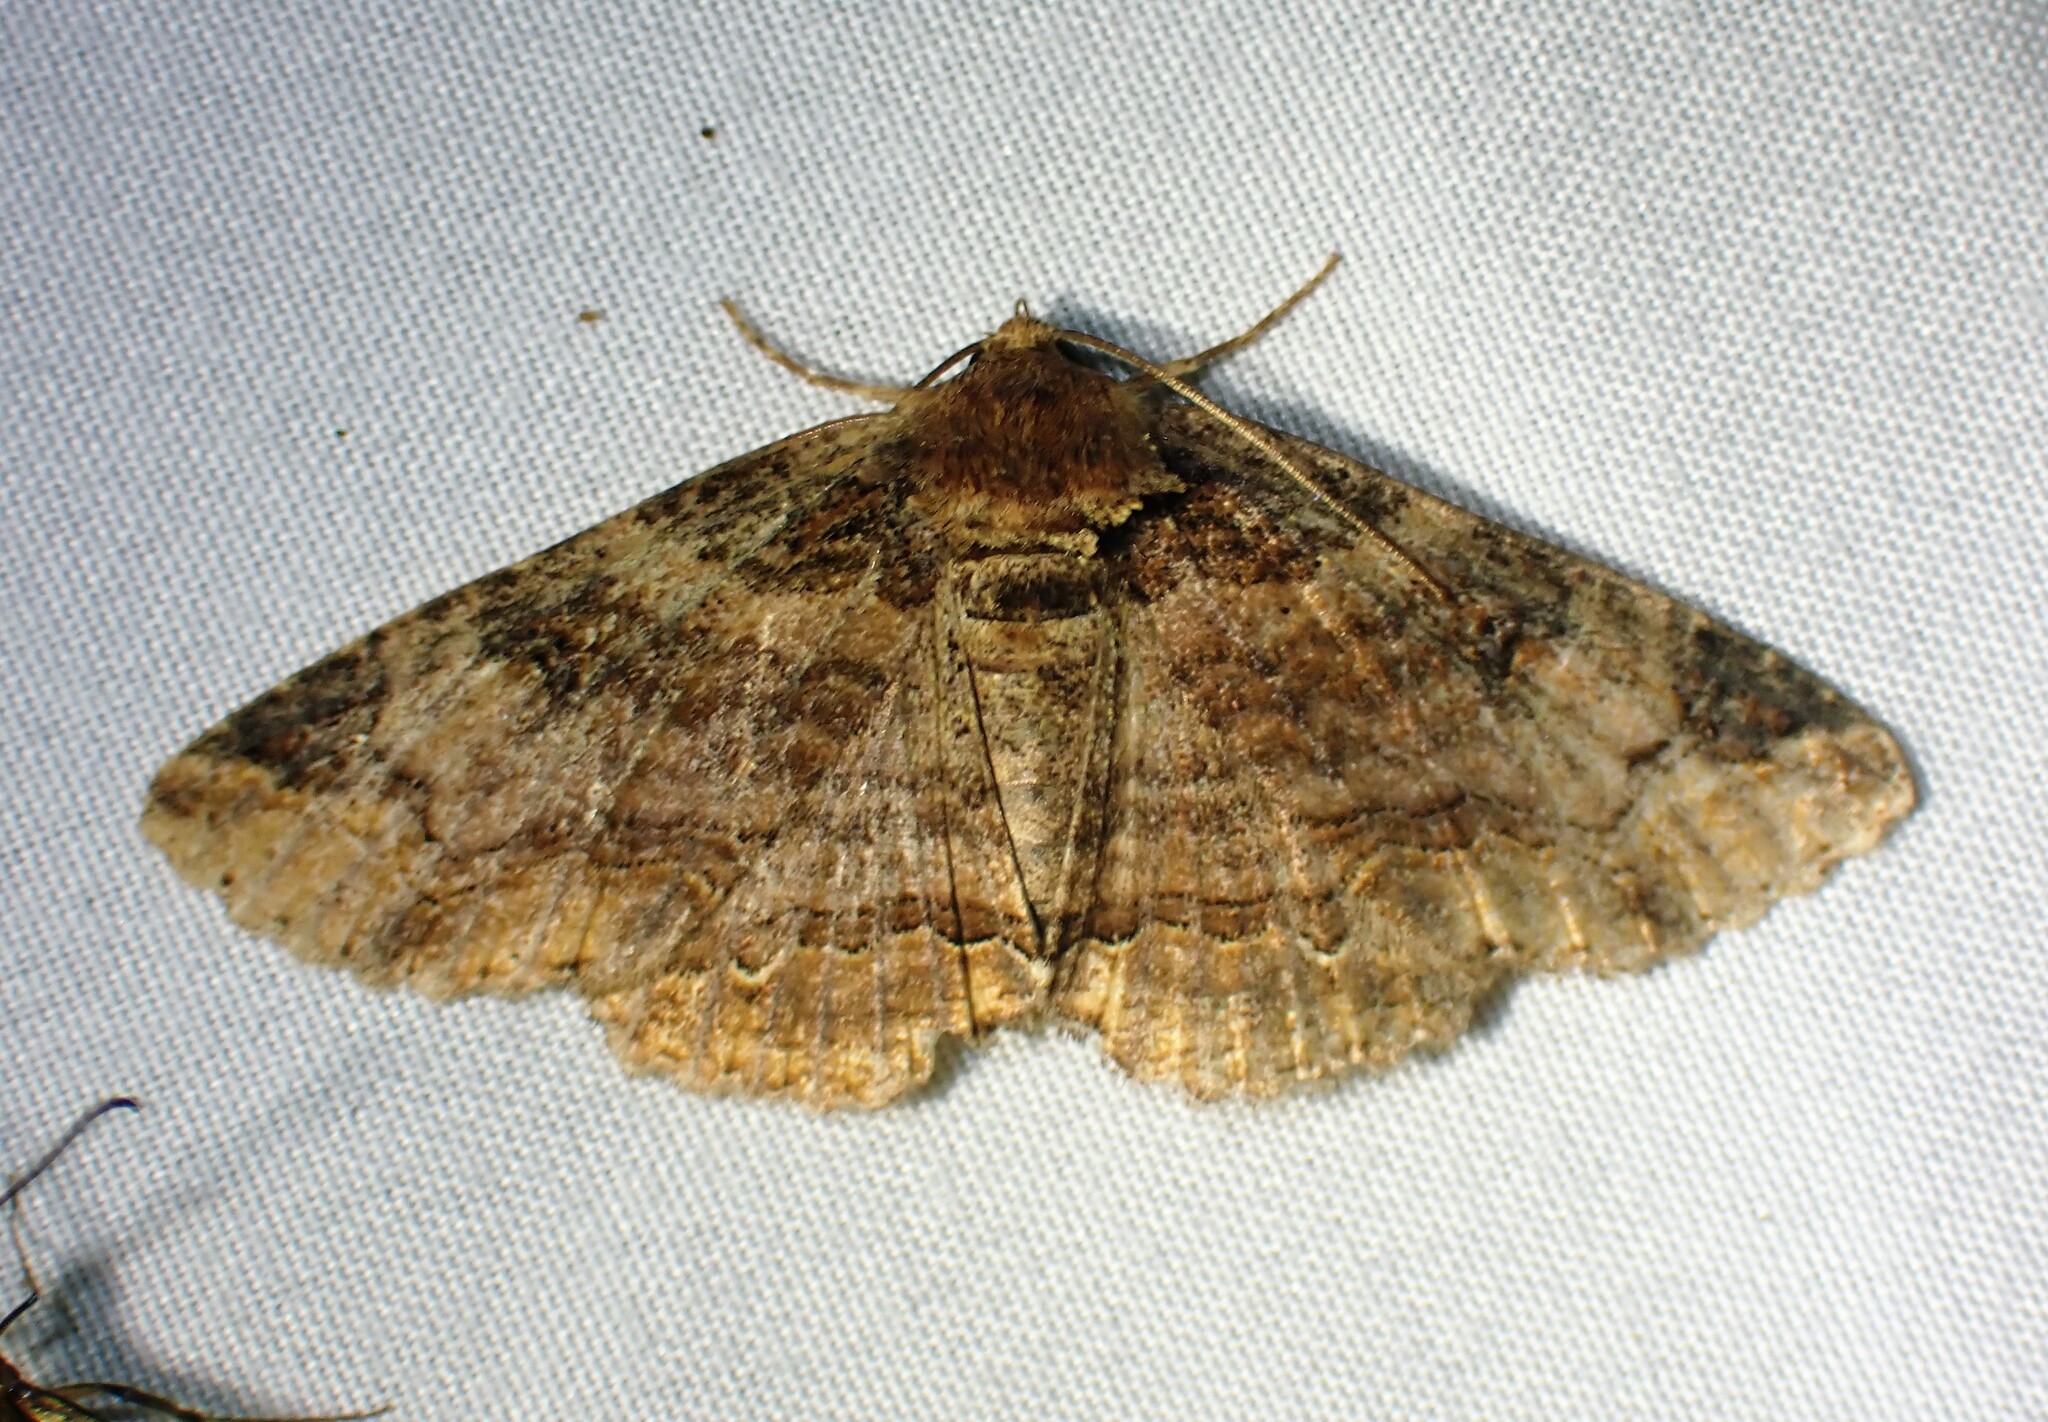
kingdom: Animalia
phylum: Arthropoda
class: Insecta
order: Lepidoptera
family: Erebidae
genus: Zale
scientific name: Zale minerea
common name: Colorful zale moth
